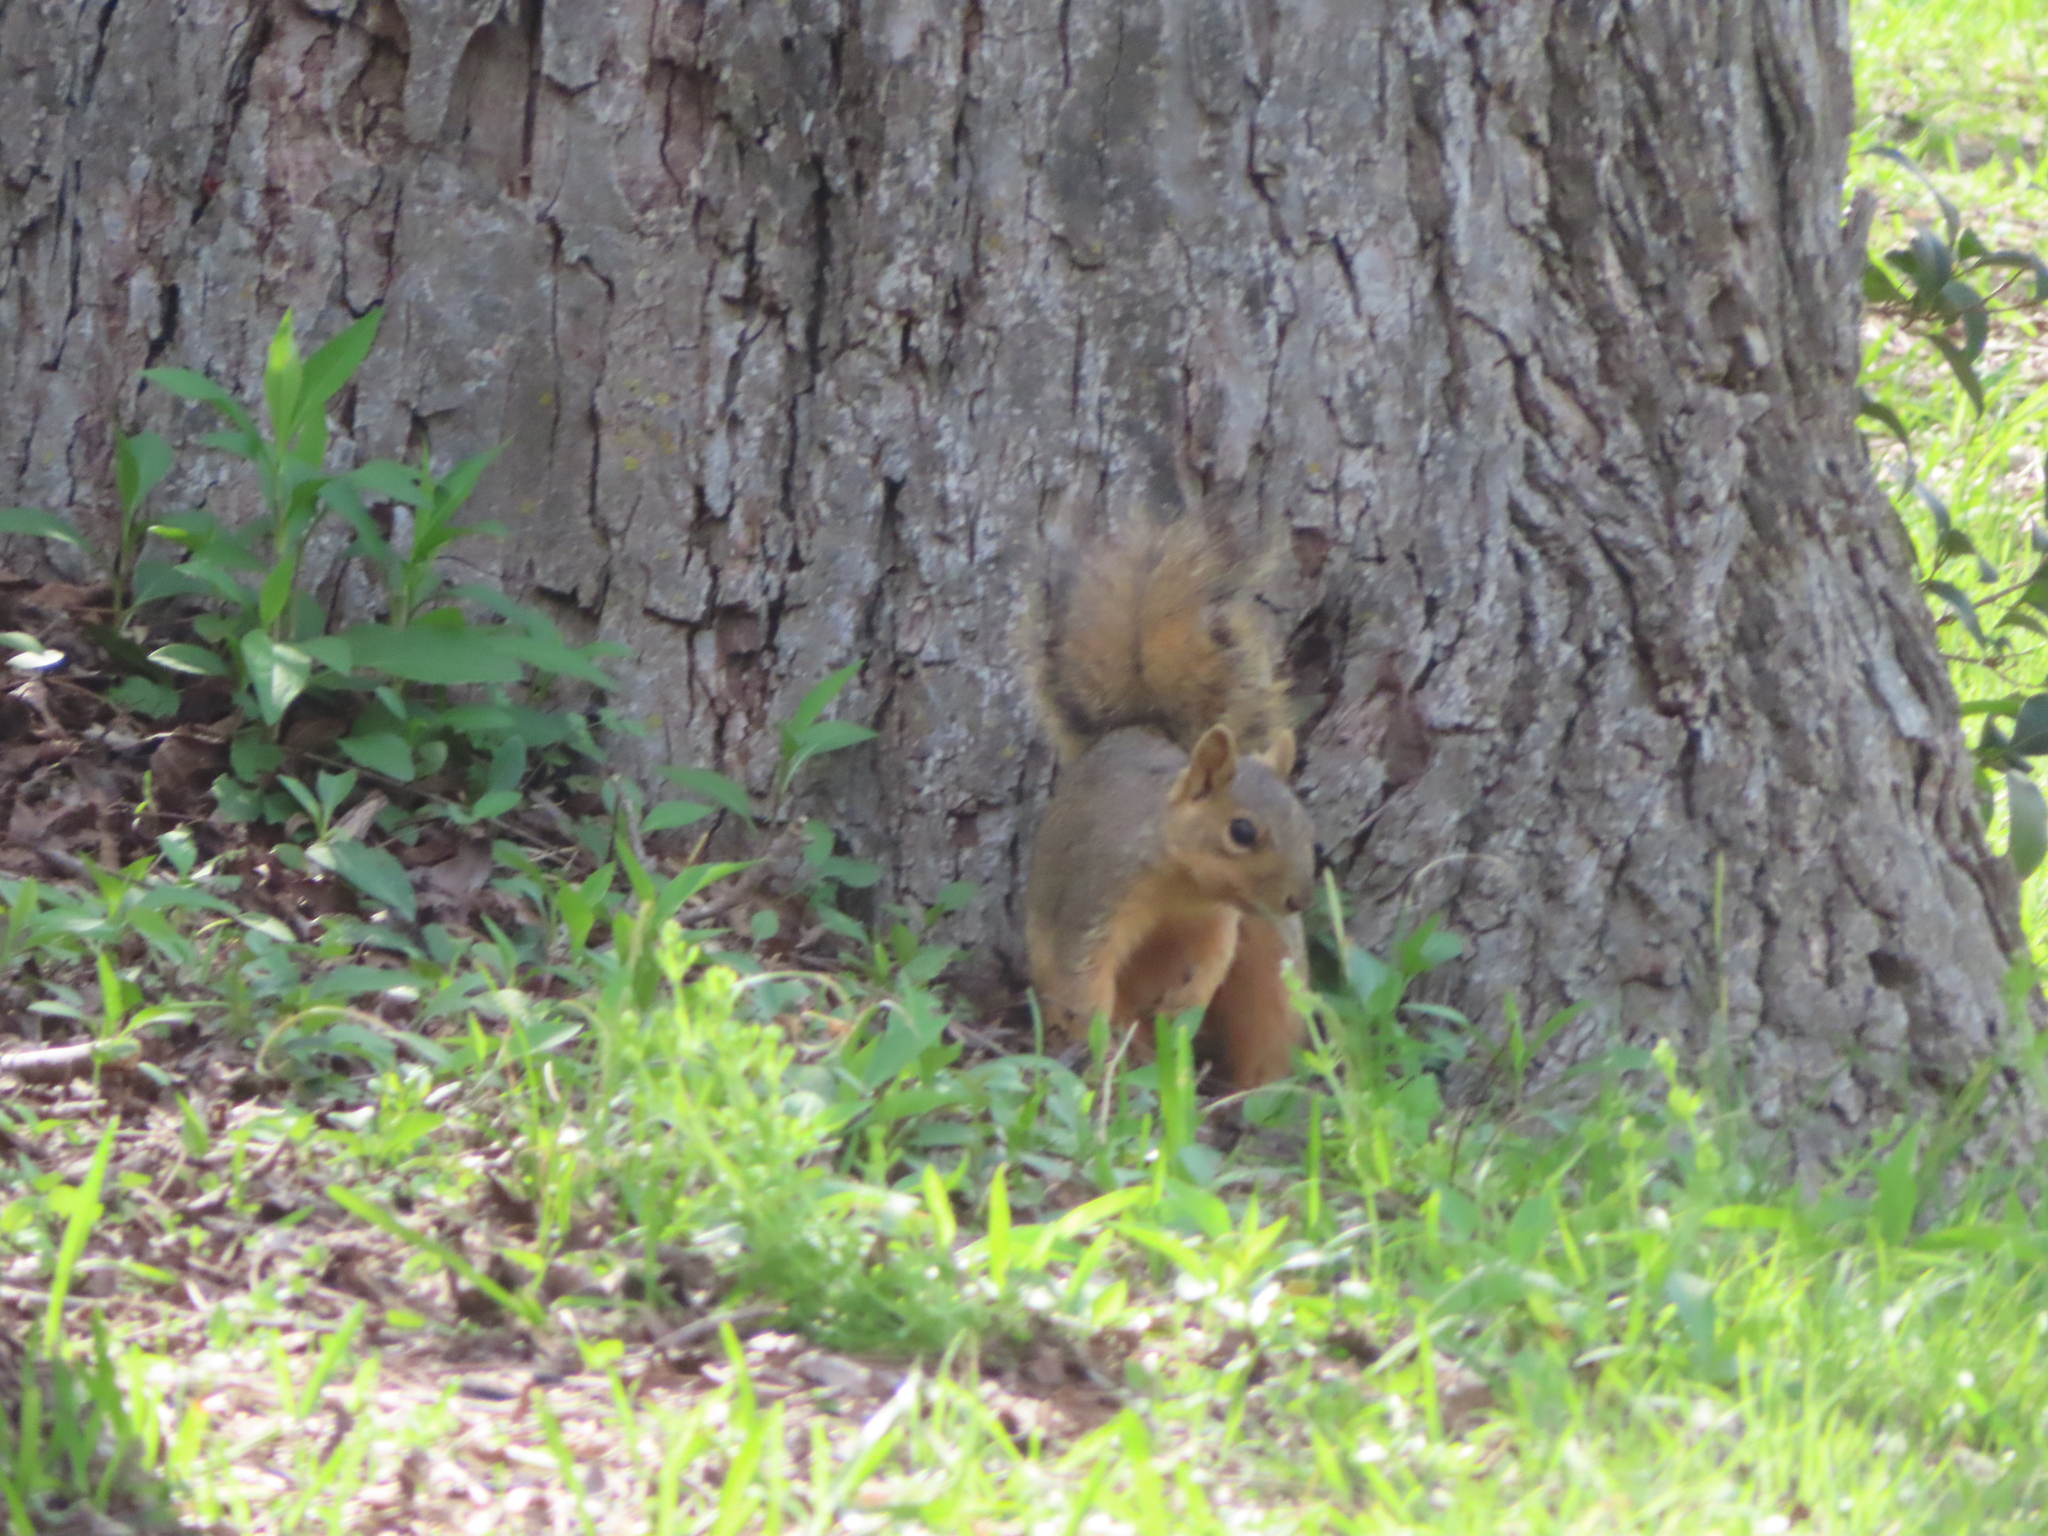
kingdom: Animalia
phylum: Chordata
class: Mammalia
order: Rodentia
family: Sciuridae
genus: Sciurus
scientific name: Sciurus niger
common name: Fox squirrel
